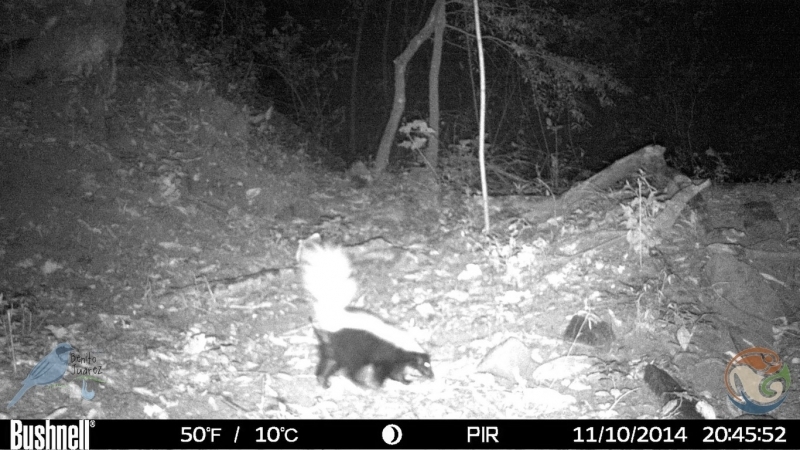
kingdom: Animalia
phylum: Chordata
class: Mammalia
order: Carnivora
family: Mephitidae
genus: Conepatus
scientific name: Conepatus leuconotus
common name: Eastern hog-nosed skunk
